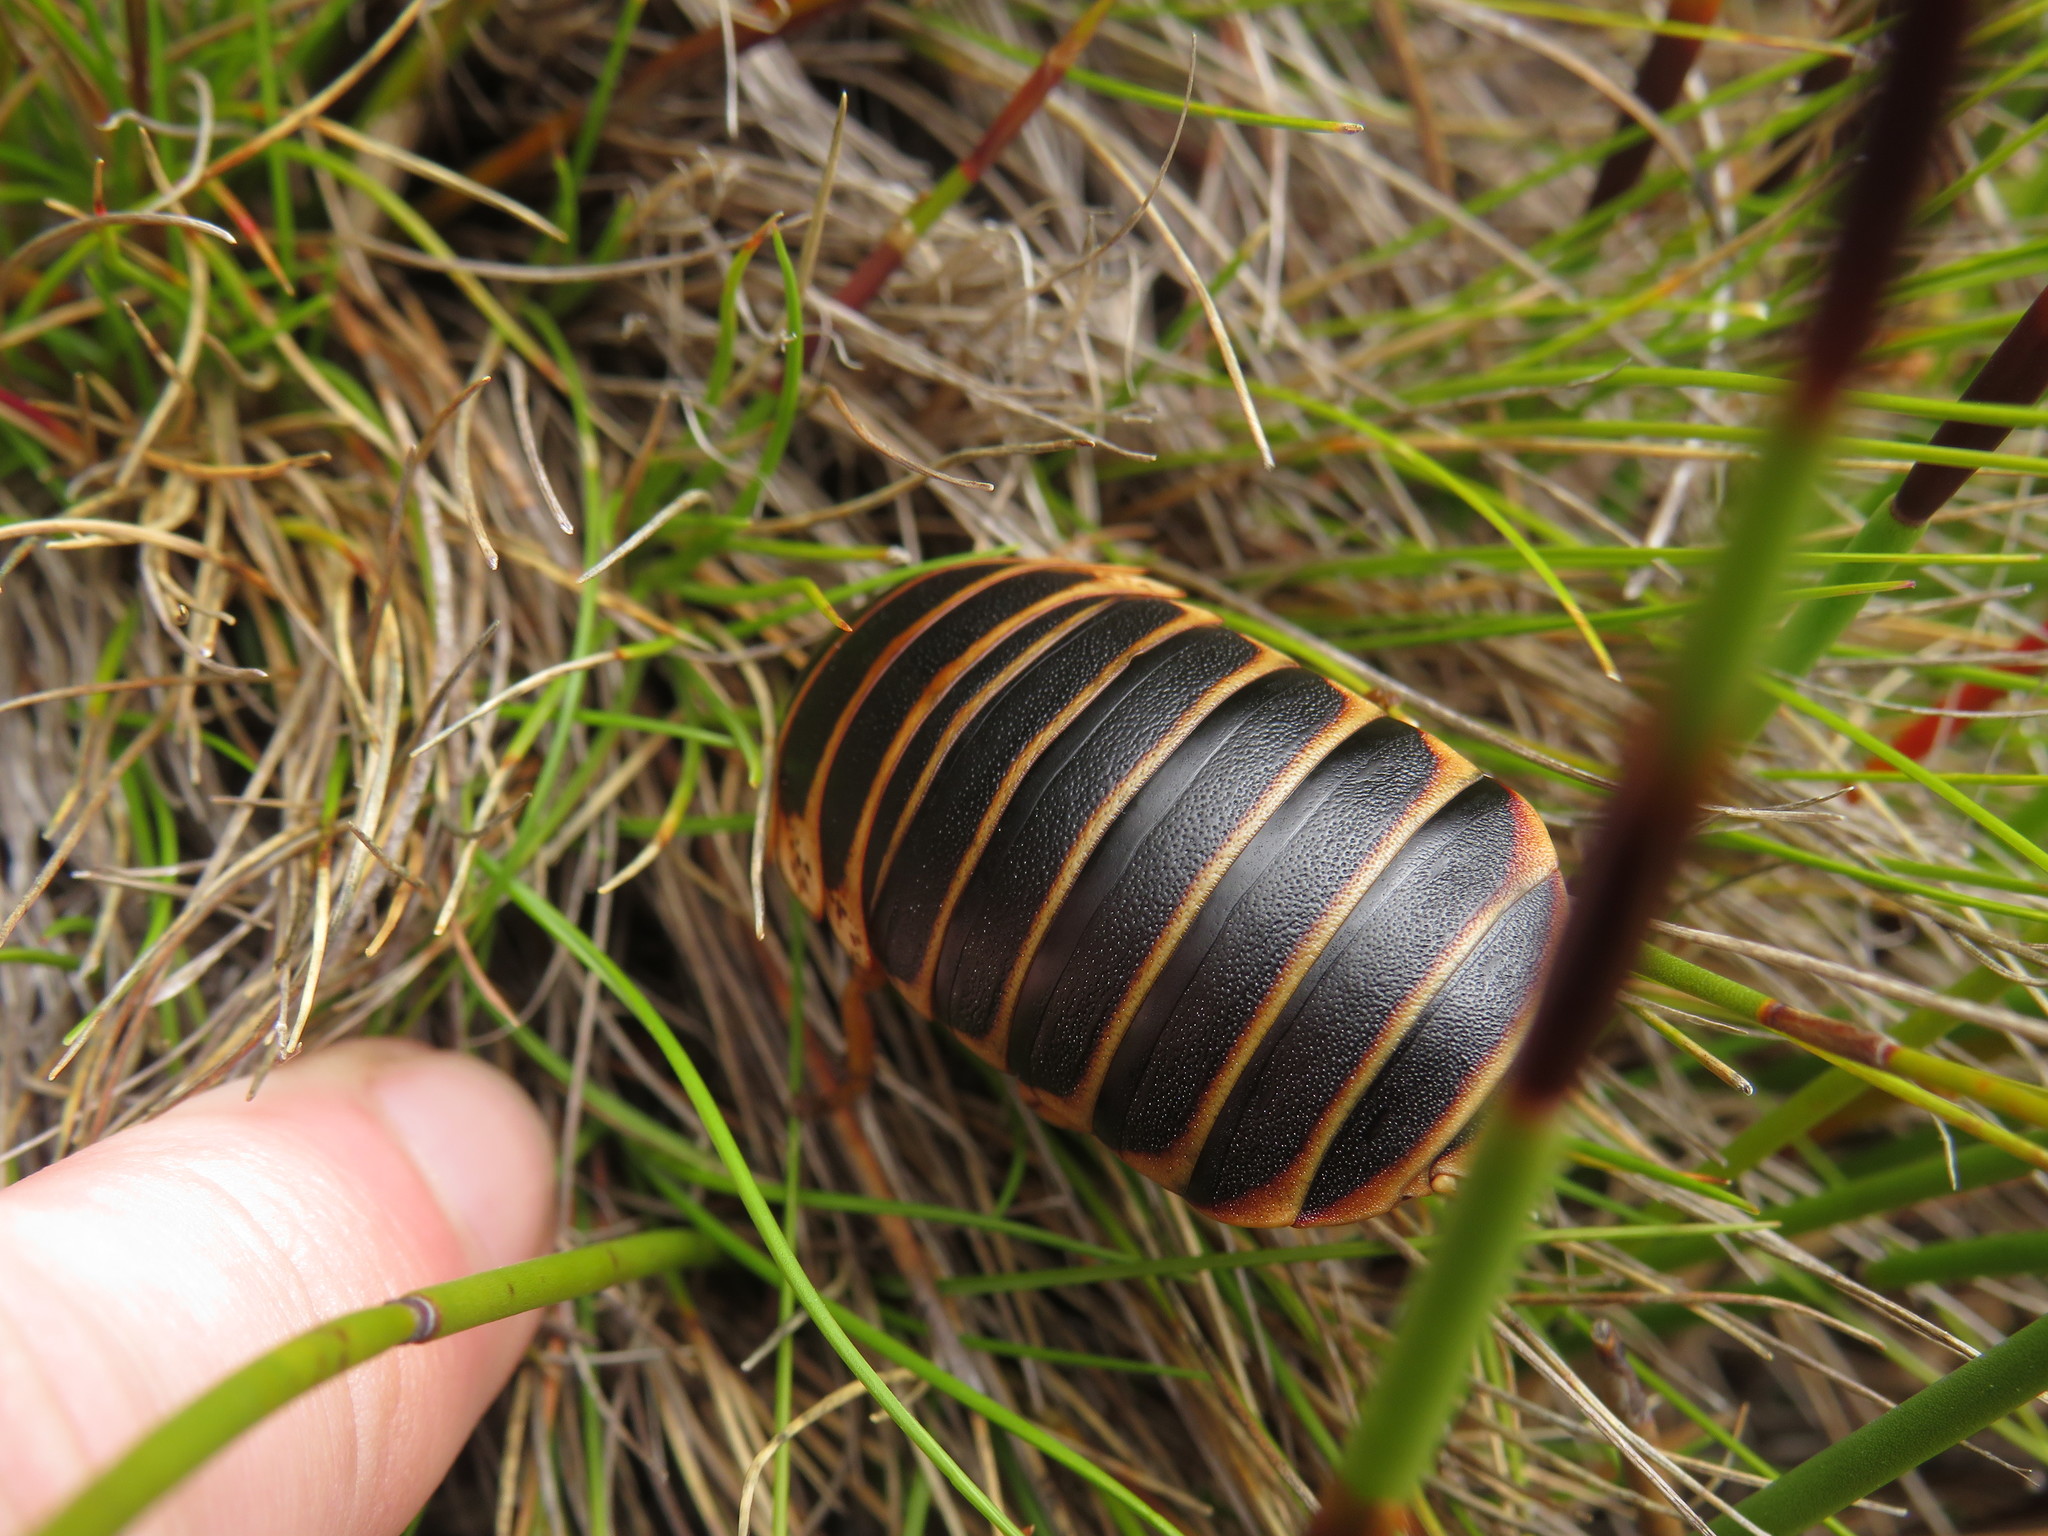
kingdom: Animalia
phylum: Arthropoda
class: Insecta
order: Blattodea
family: Blaberidae
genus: Aptera
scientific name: Aptera fusca
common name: Cape mountain cockroach
